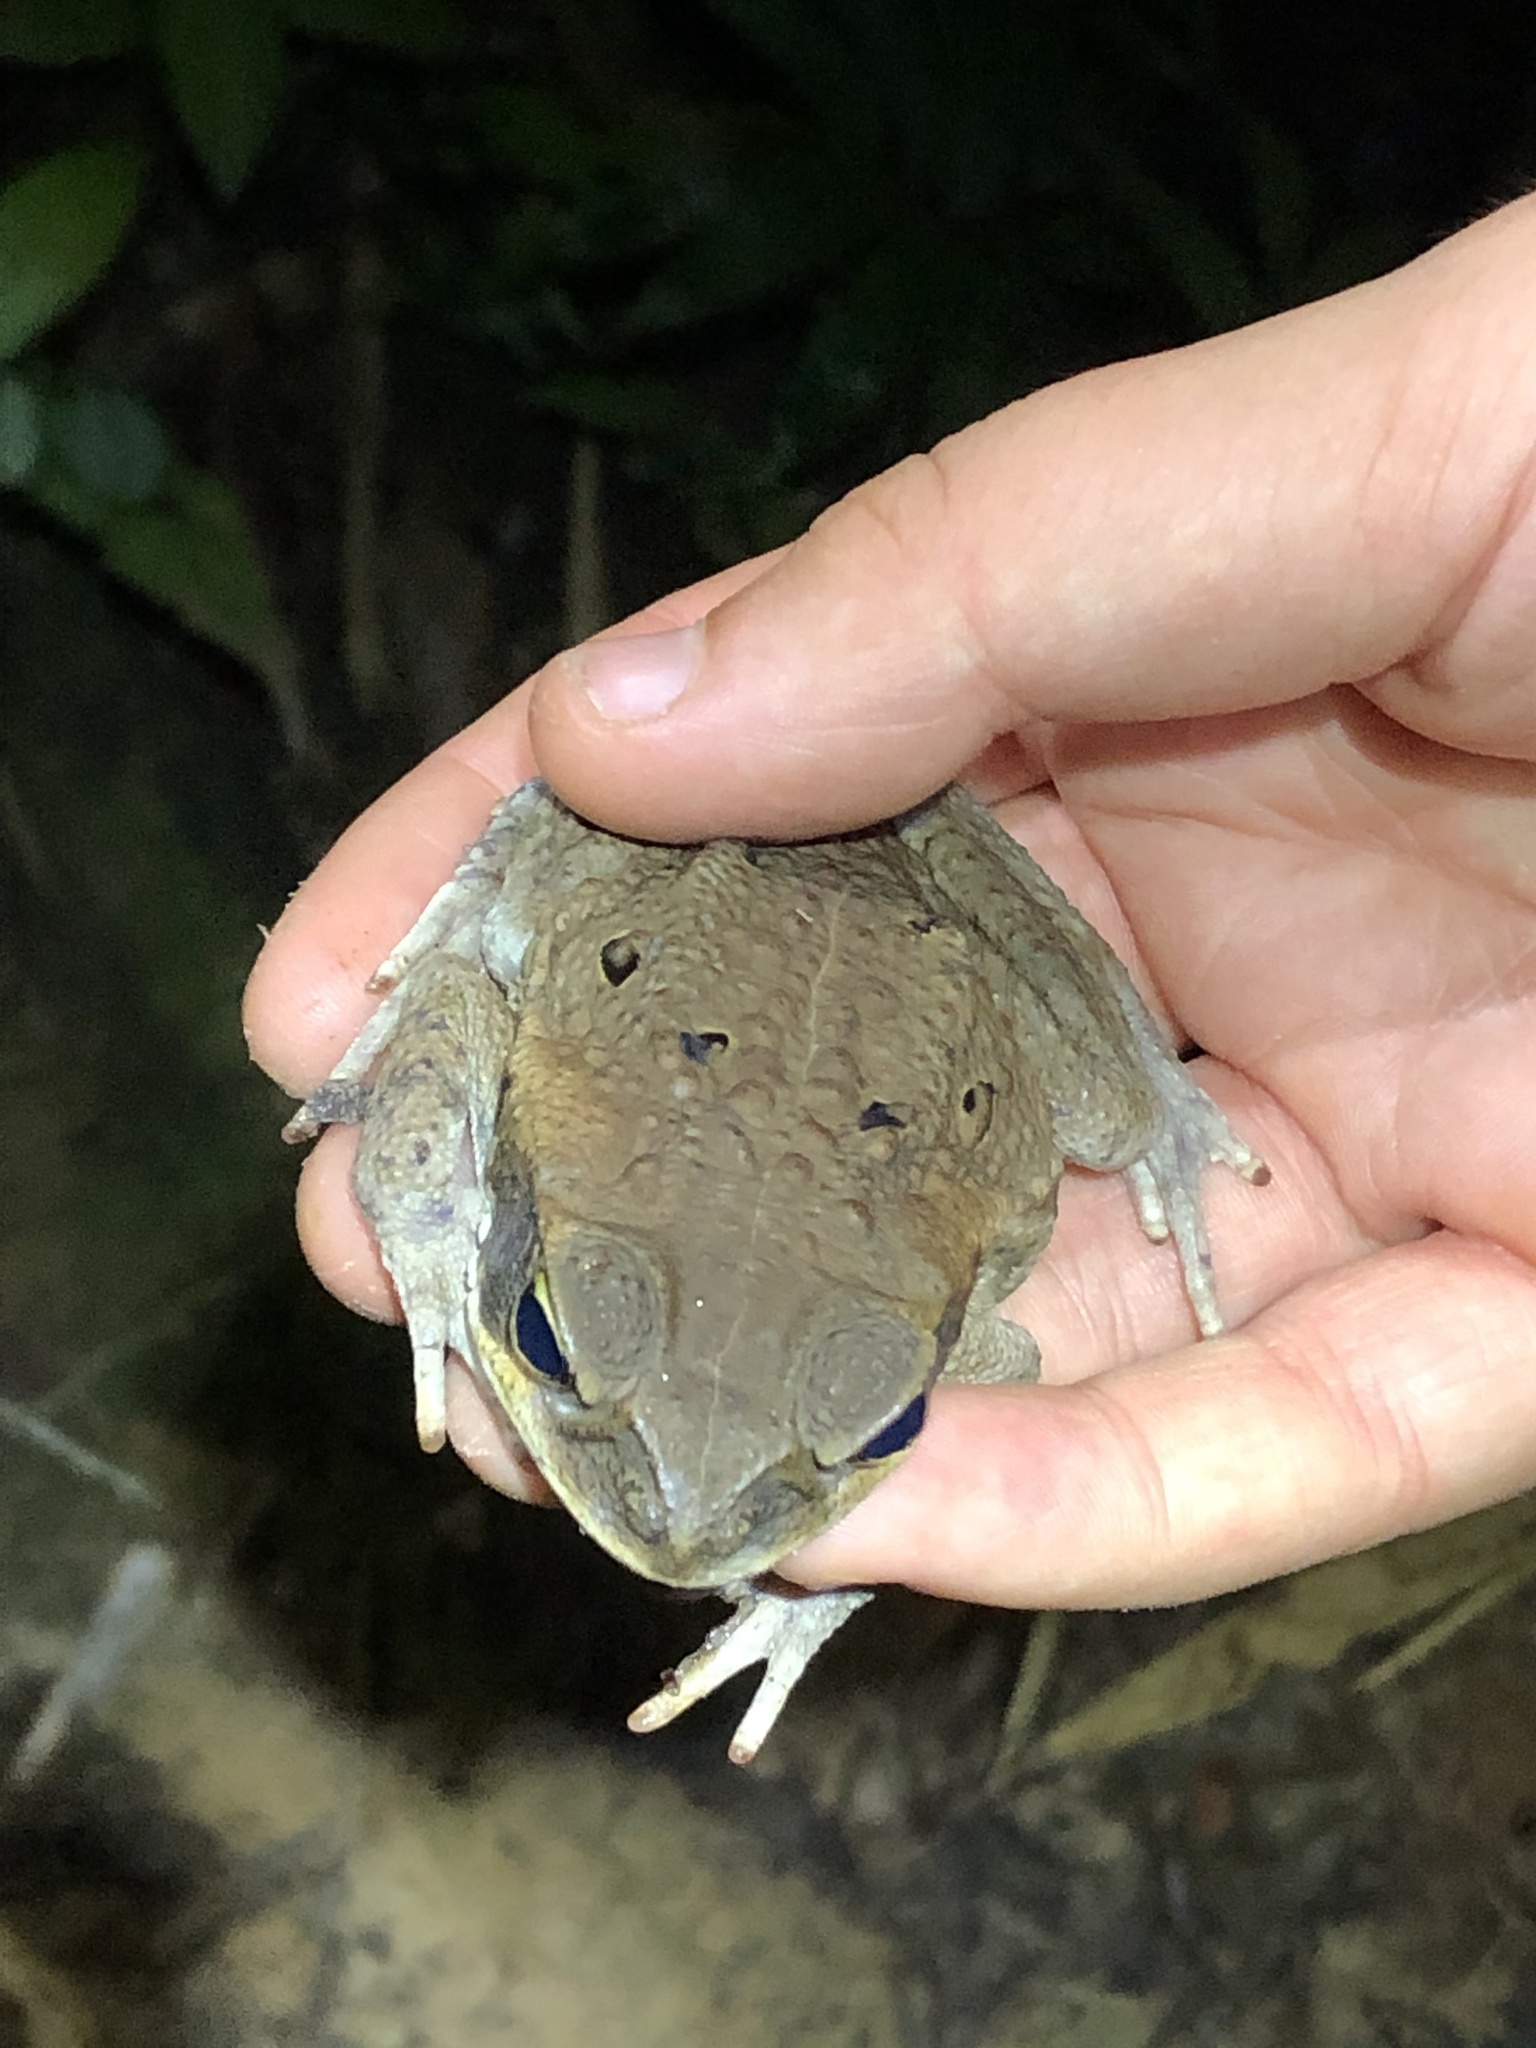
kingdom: Animalia
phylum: Chordata
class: Amphibia
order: Anura
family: Bufonidae
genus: Rhinella
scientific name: Rhinella marina
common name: Cane toad
